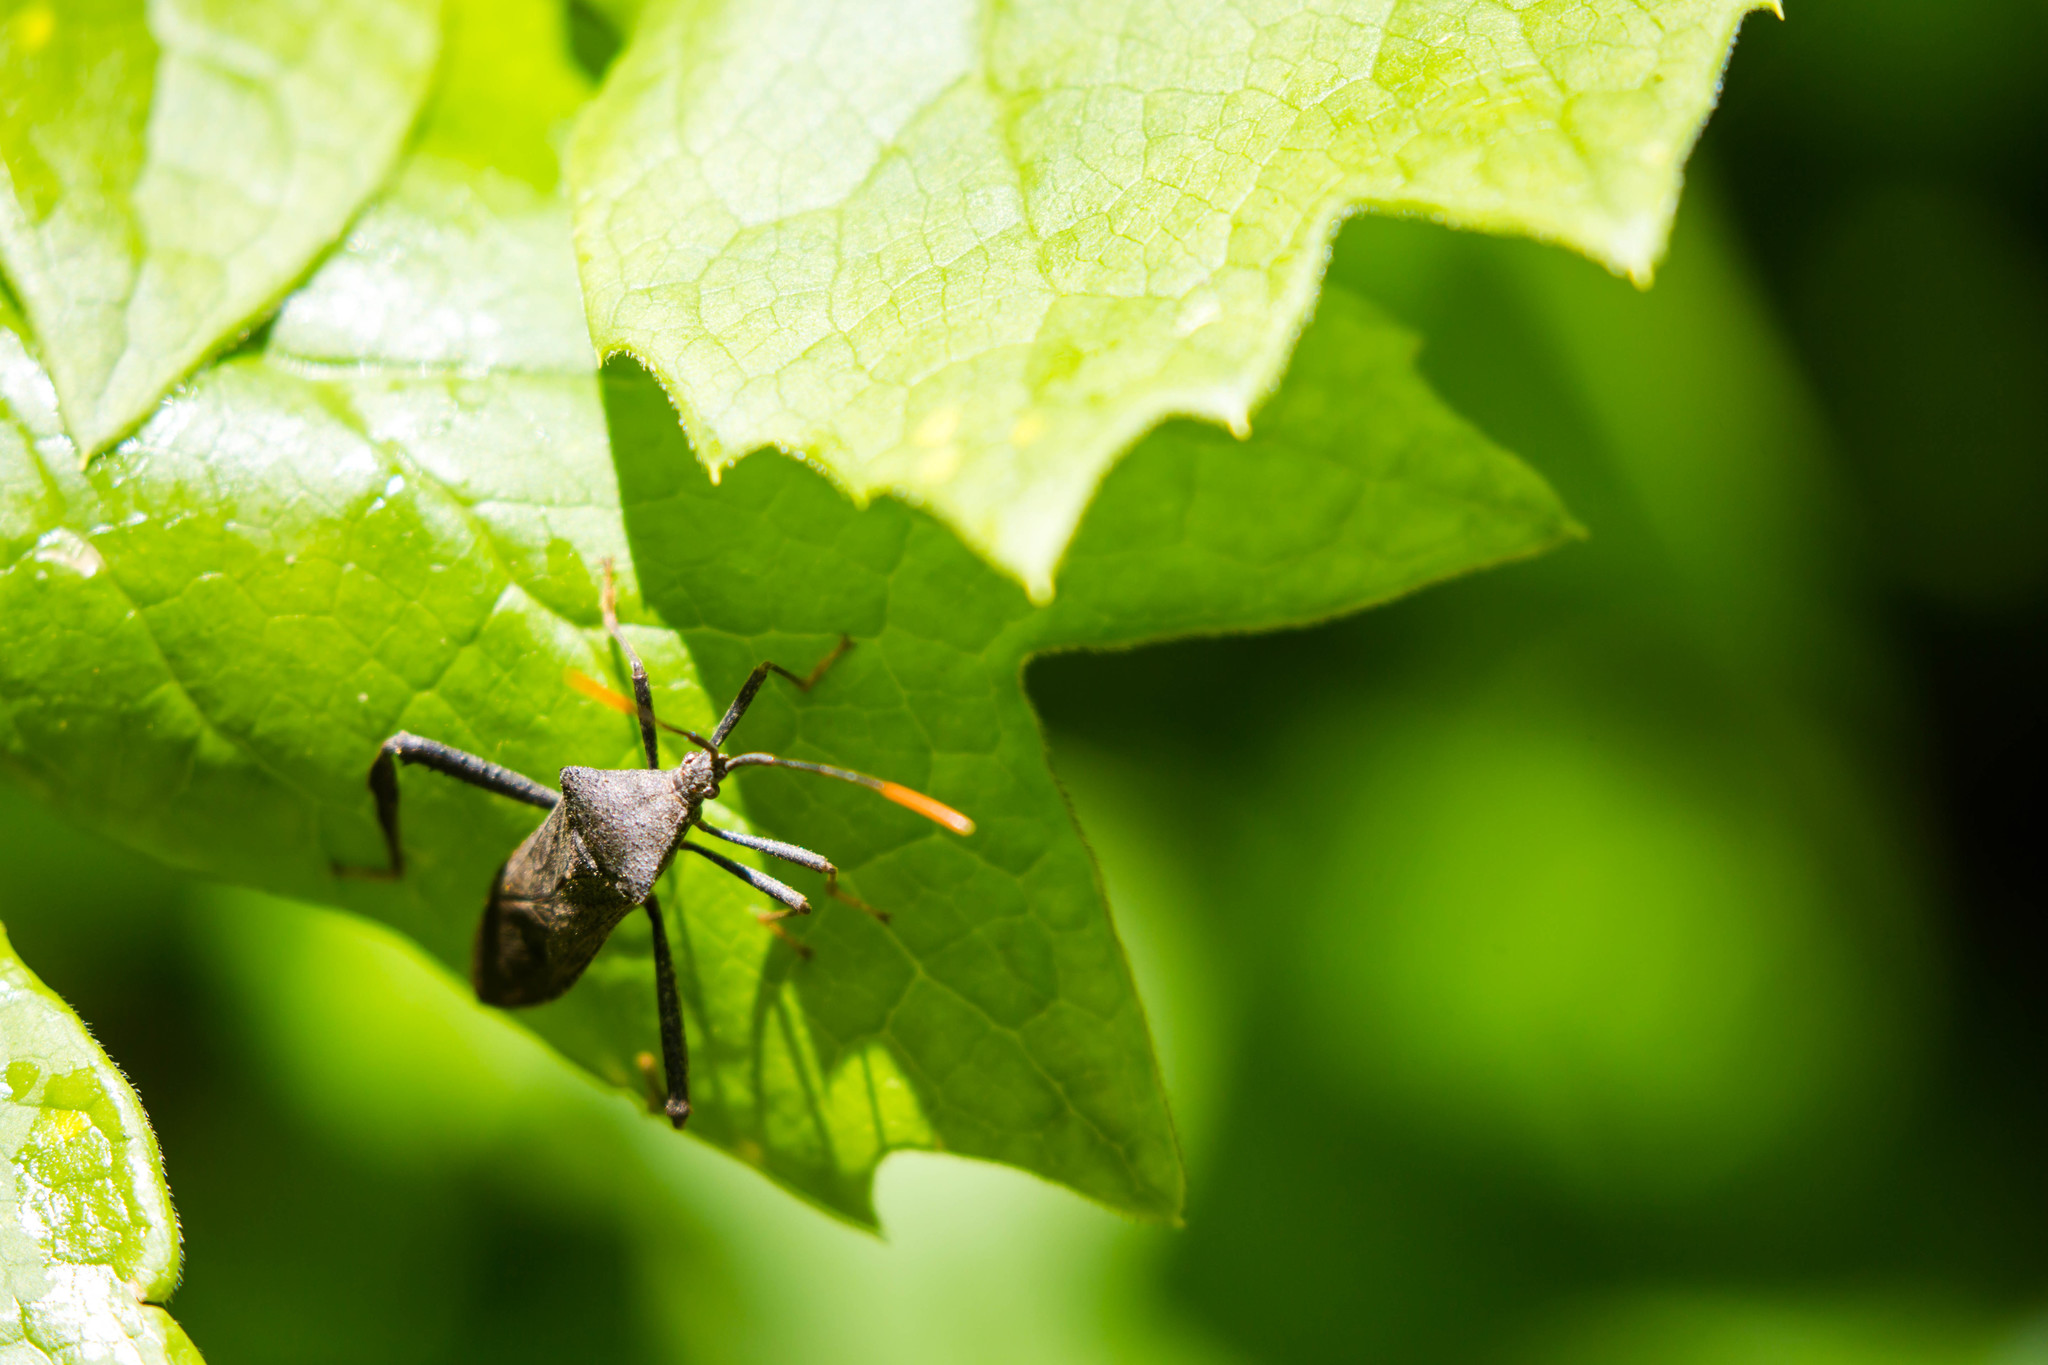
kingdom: Animalia
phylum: Arthropoda
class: Insecta
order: Hemiptera
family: Coreidae
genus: Acanthocephala
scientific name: Acanthocephala terminalis
